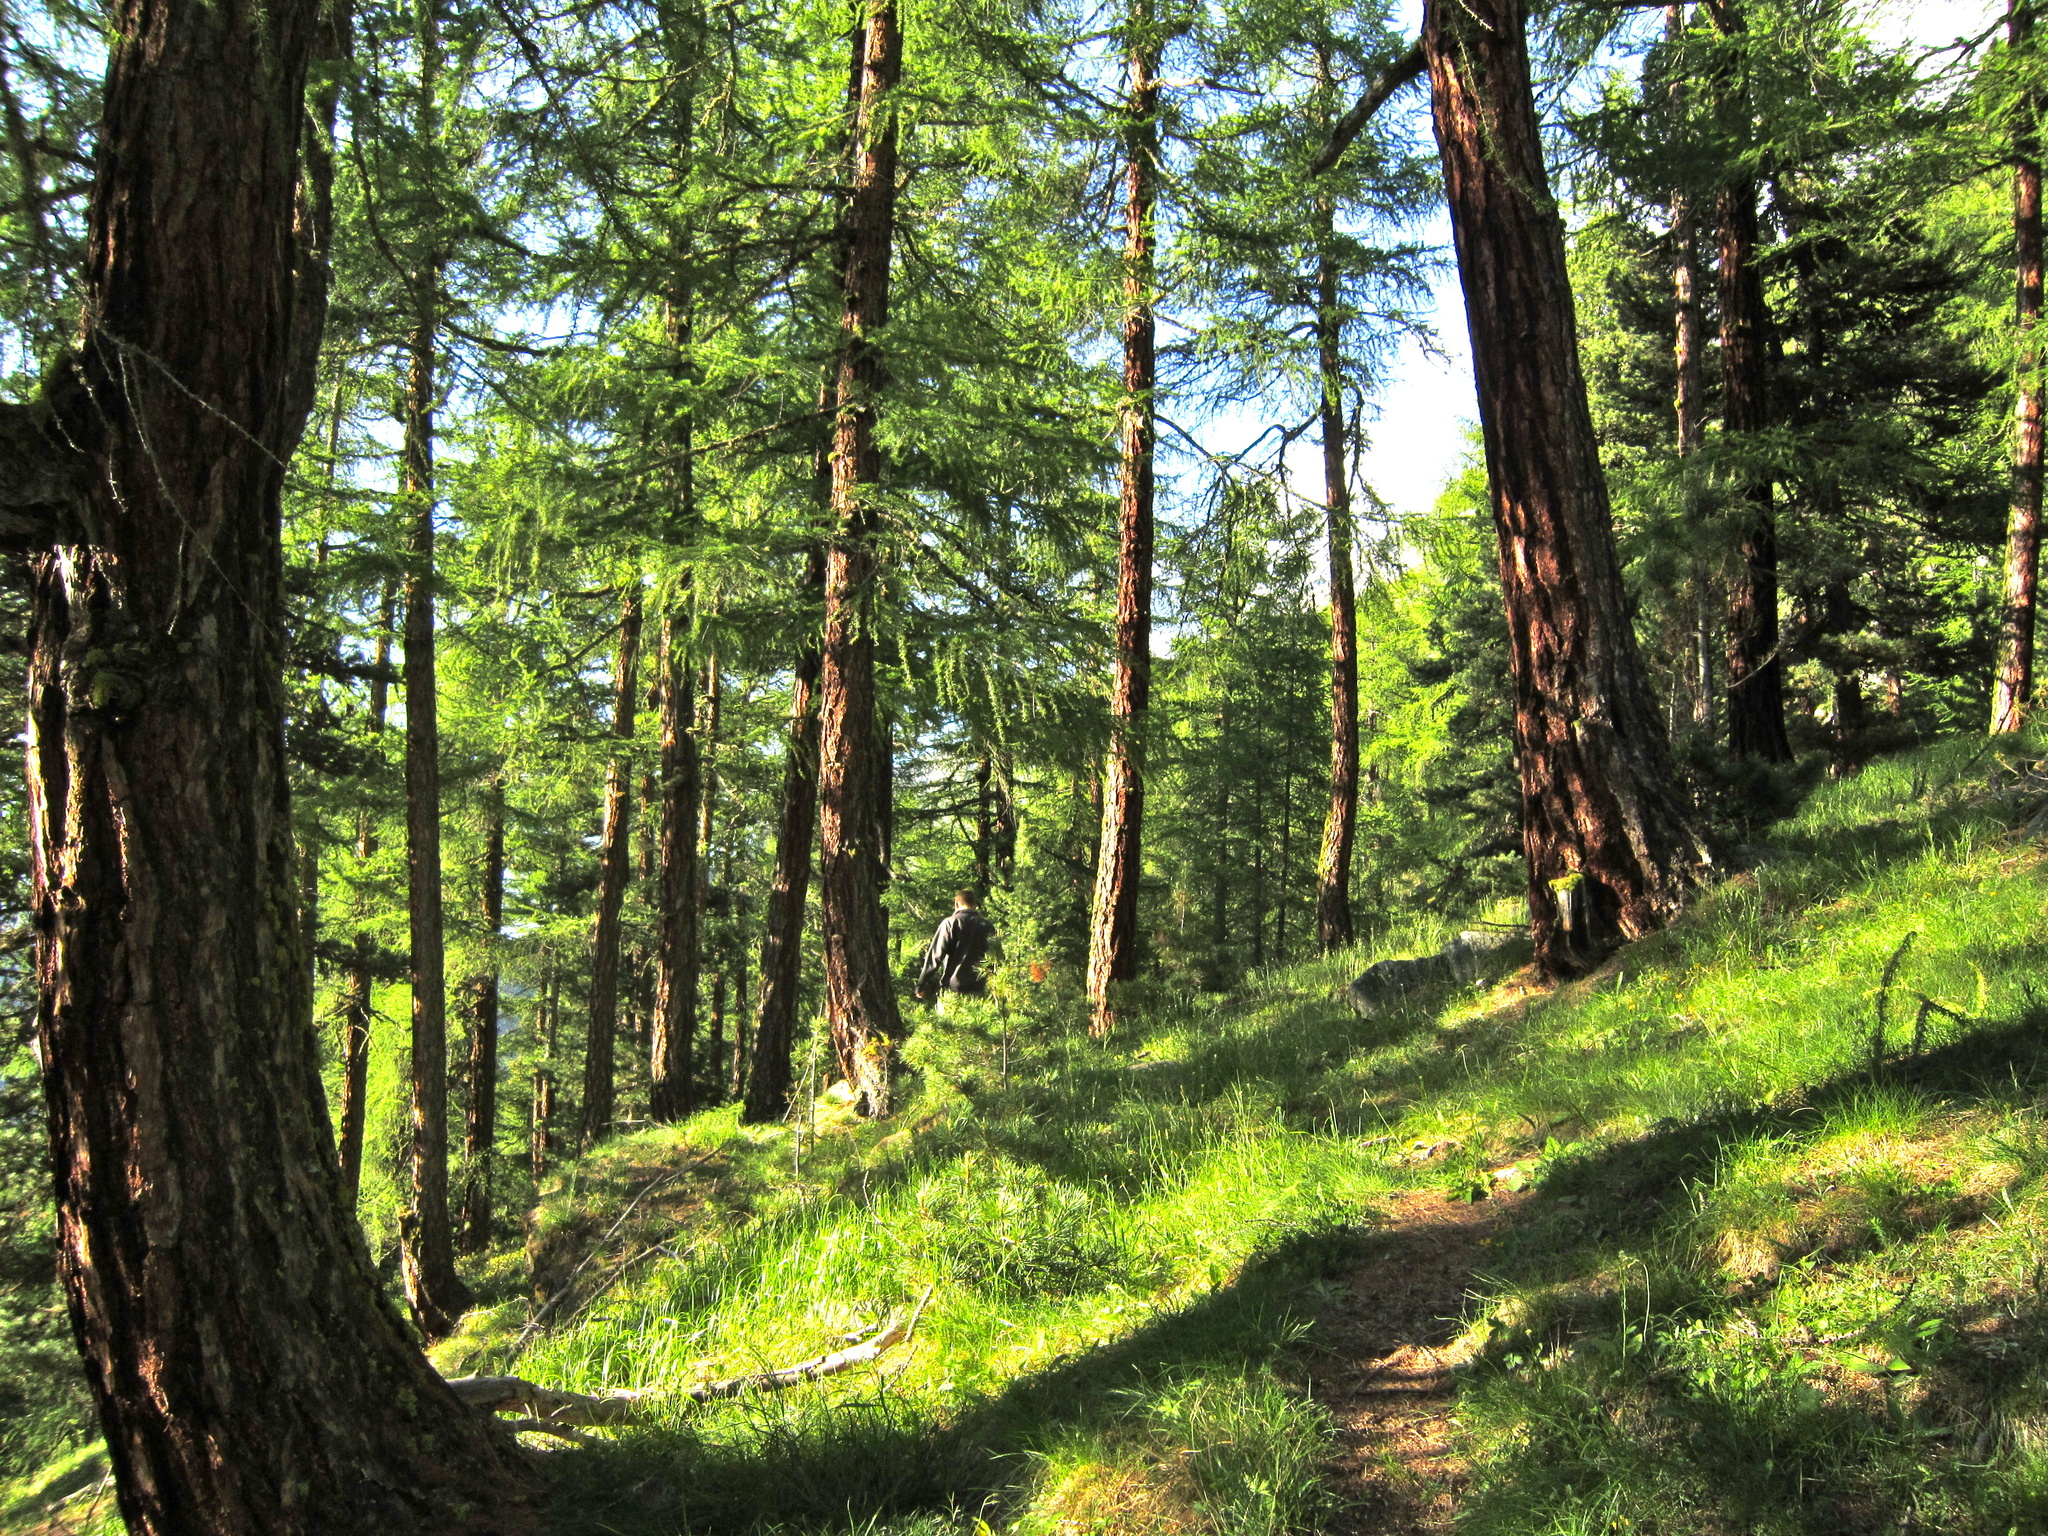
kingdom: Plantae
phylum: Tracheophyta
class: Pinopsida
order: Pinales
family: Pinaceae
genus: Larix
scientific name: Larix decidua
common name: European larch
